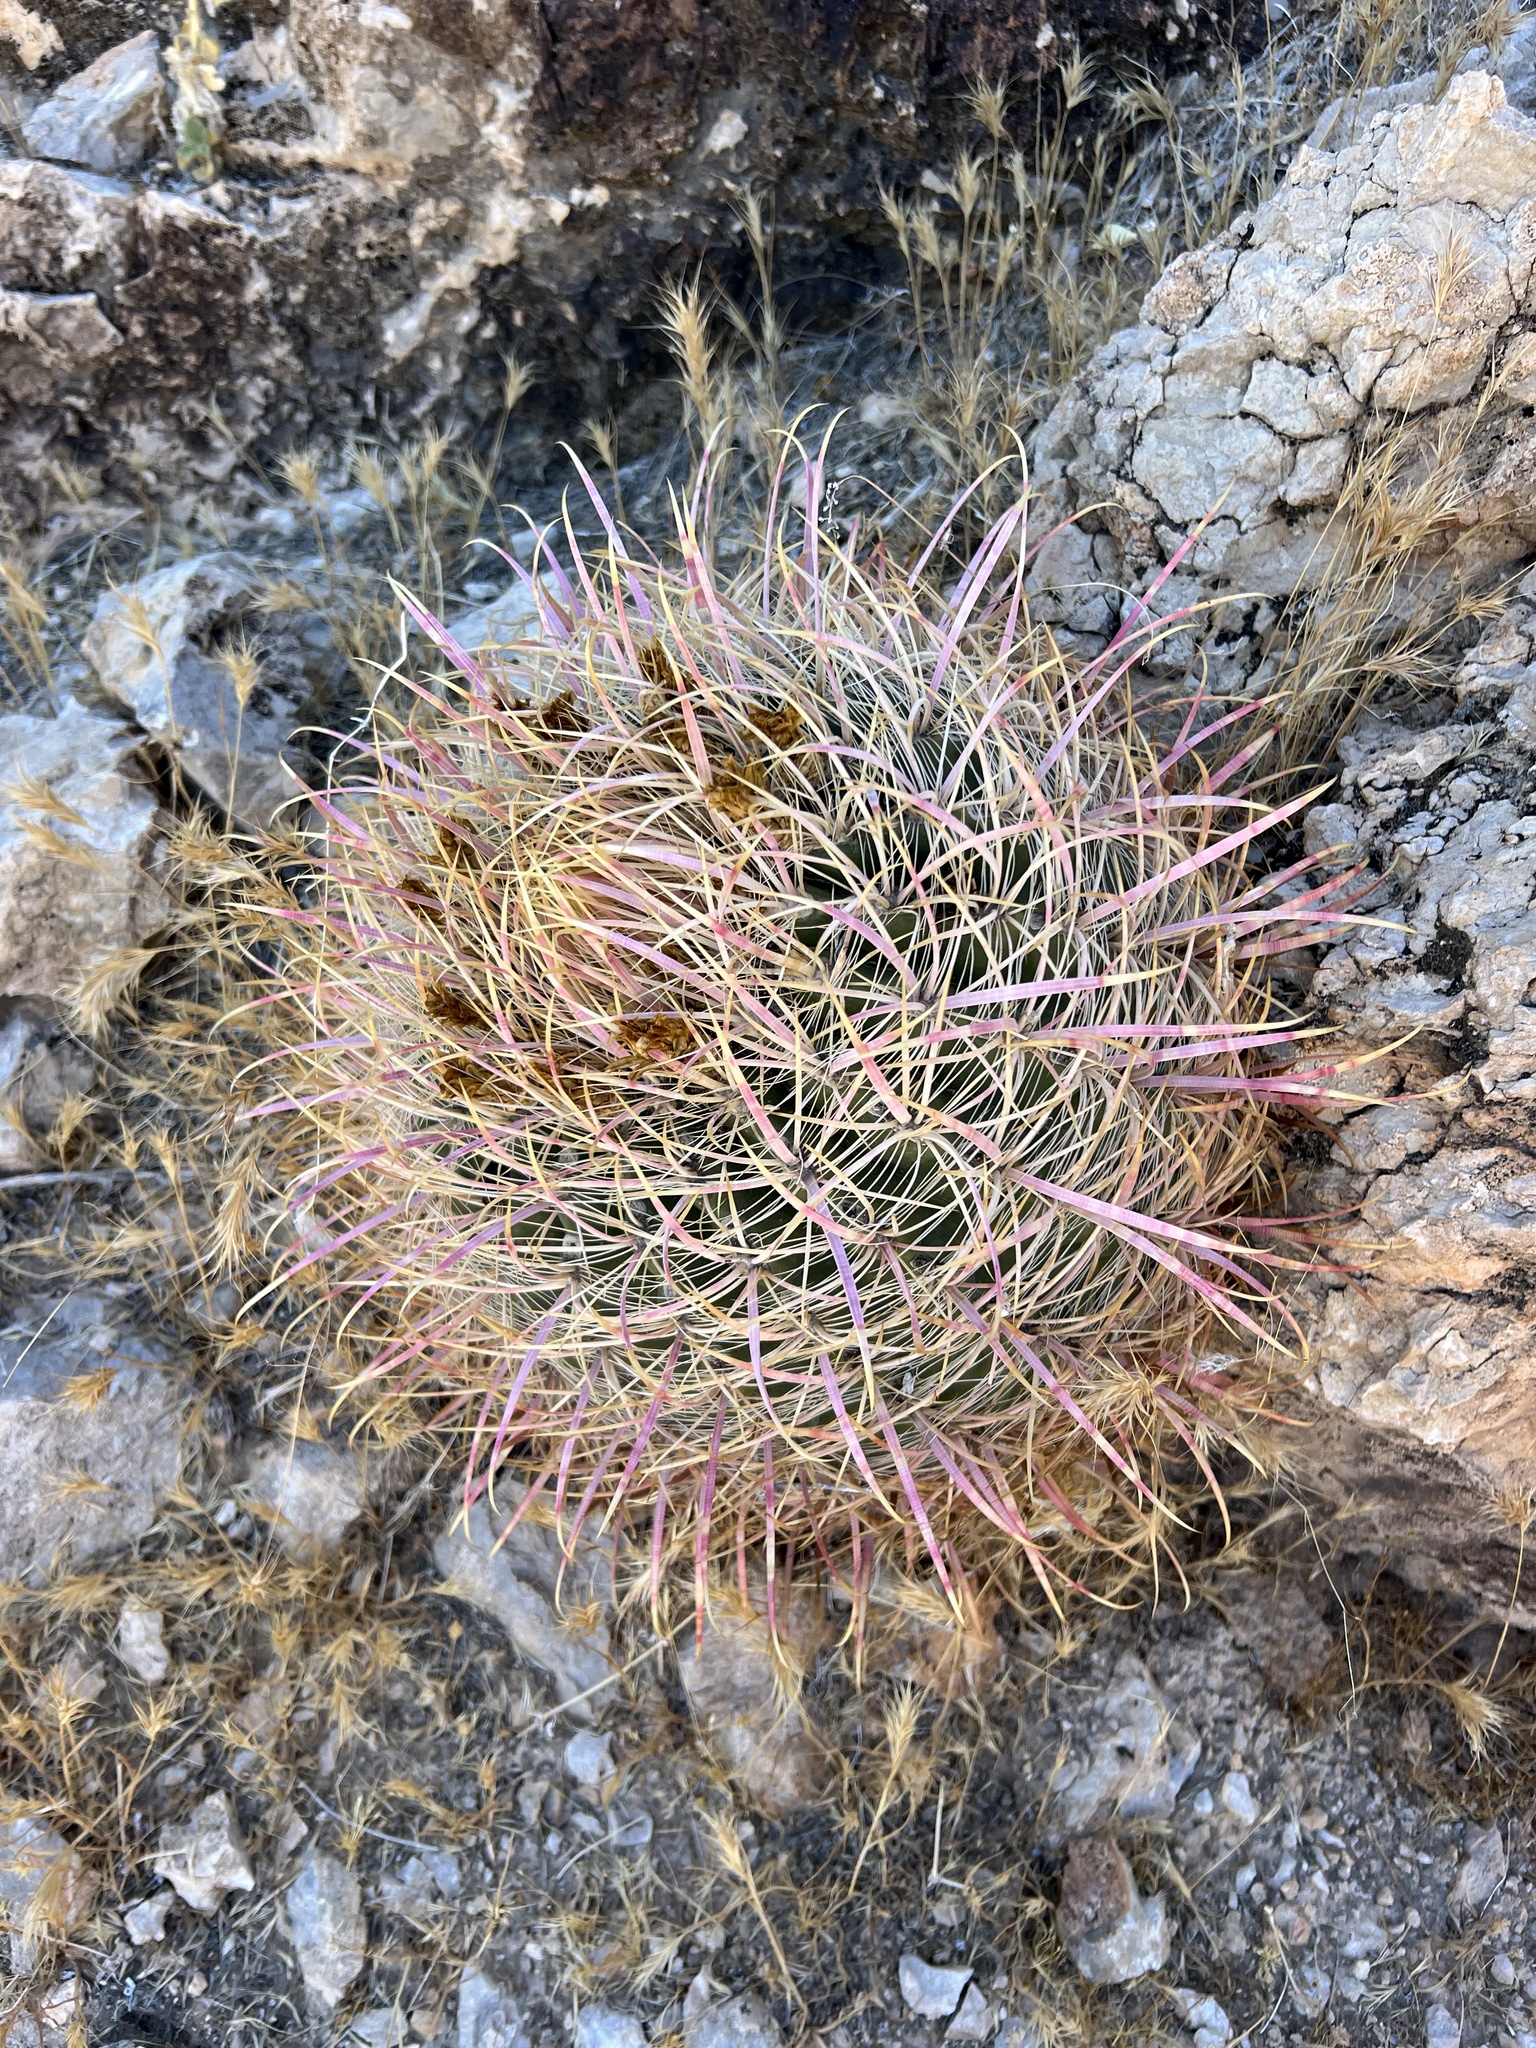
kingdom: Plantae
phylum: Tracheophyta
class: Magnoliopsida
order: Caryophyllales
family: Cactaceae
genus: Ferocactus
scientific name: Ferocactus cylindraceus
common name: California barrel cactus
